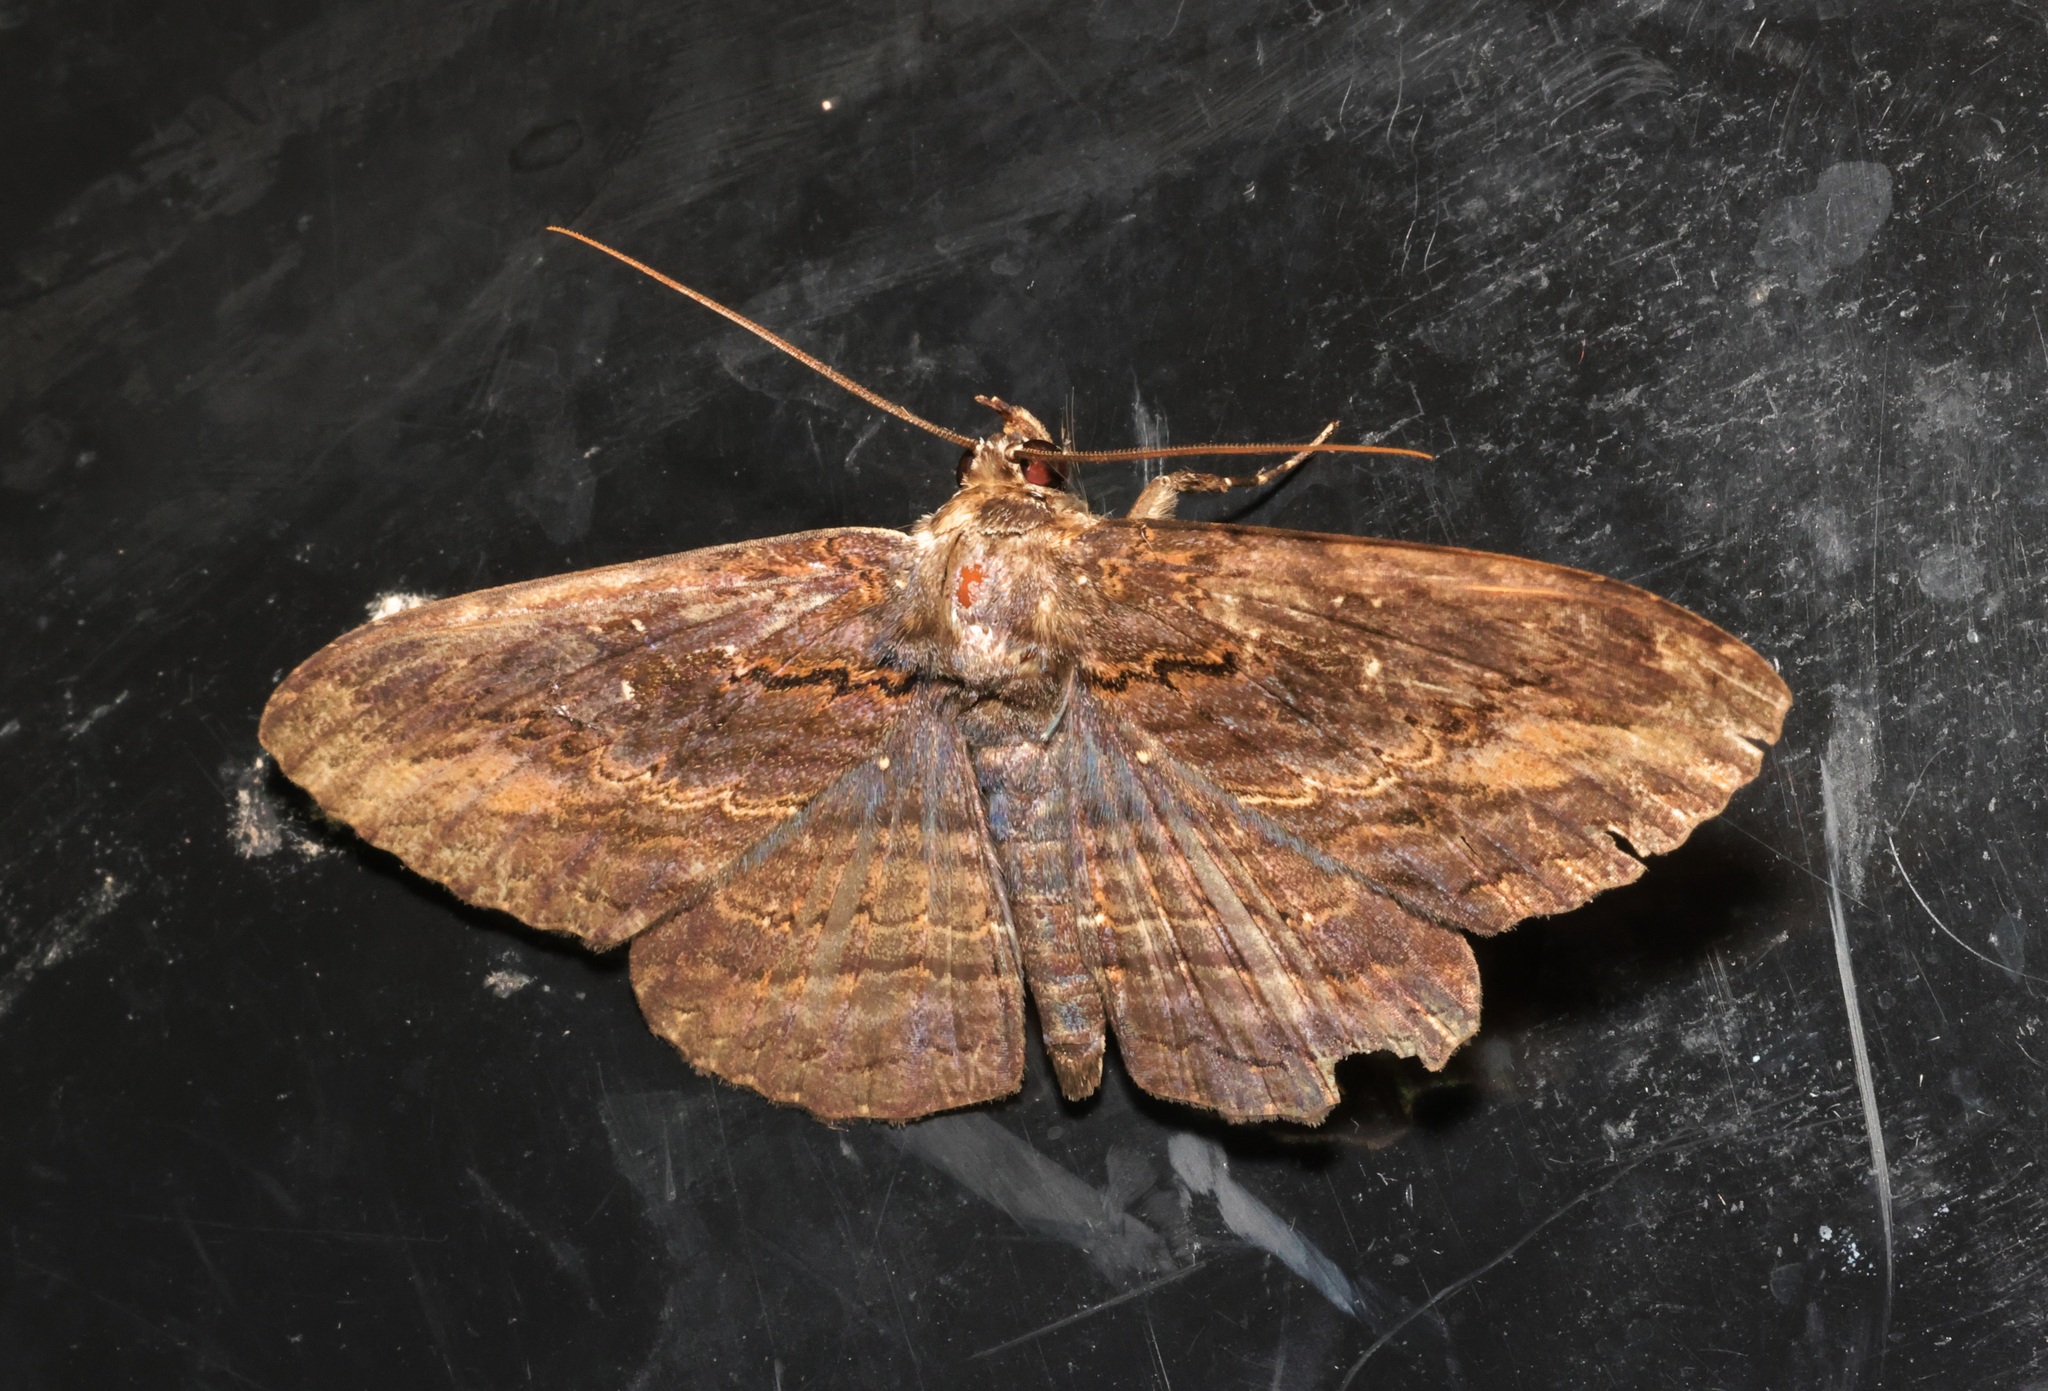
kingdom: Animalia
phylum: Arthropoda
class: Insecta
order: Lepidoptera
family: Erebidae
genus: Anisoneura
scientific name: Anisoneura salebrosa
